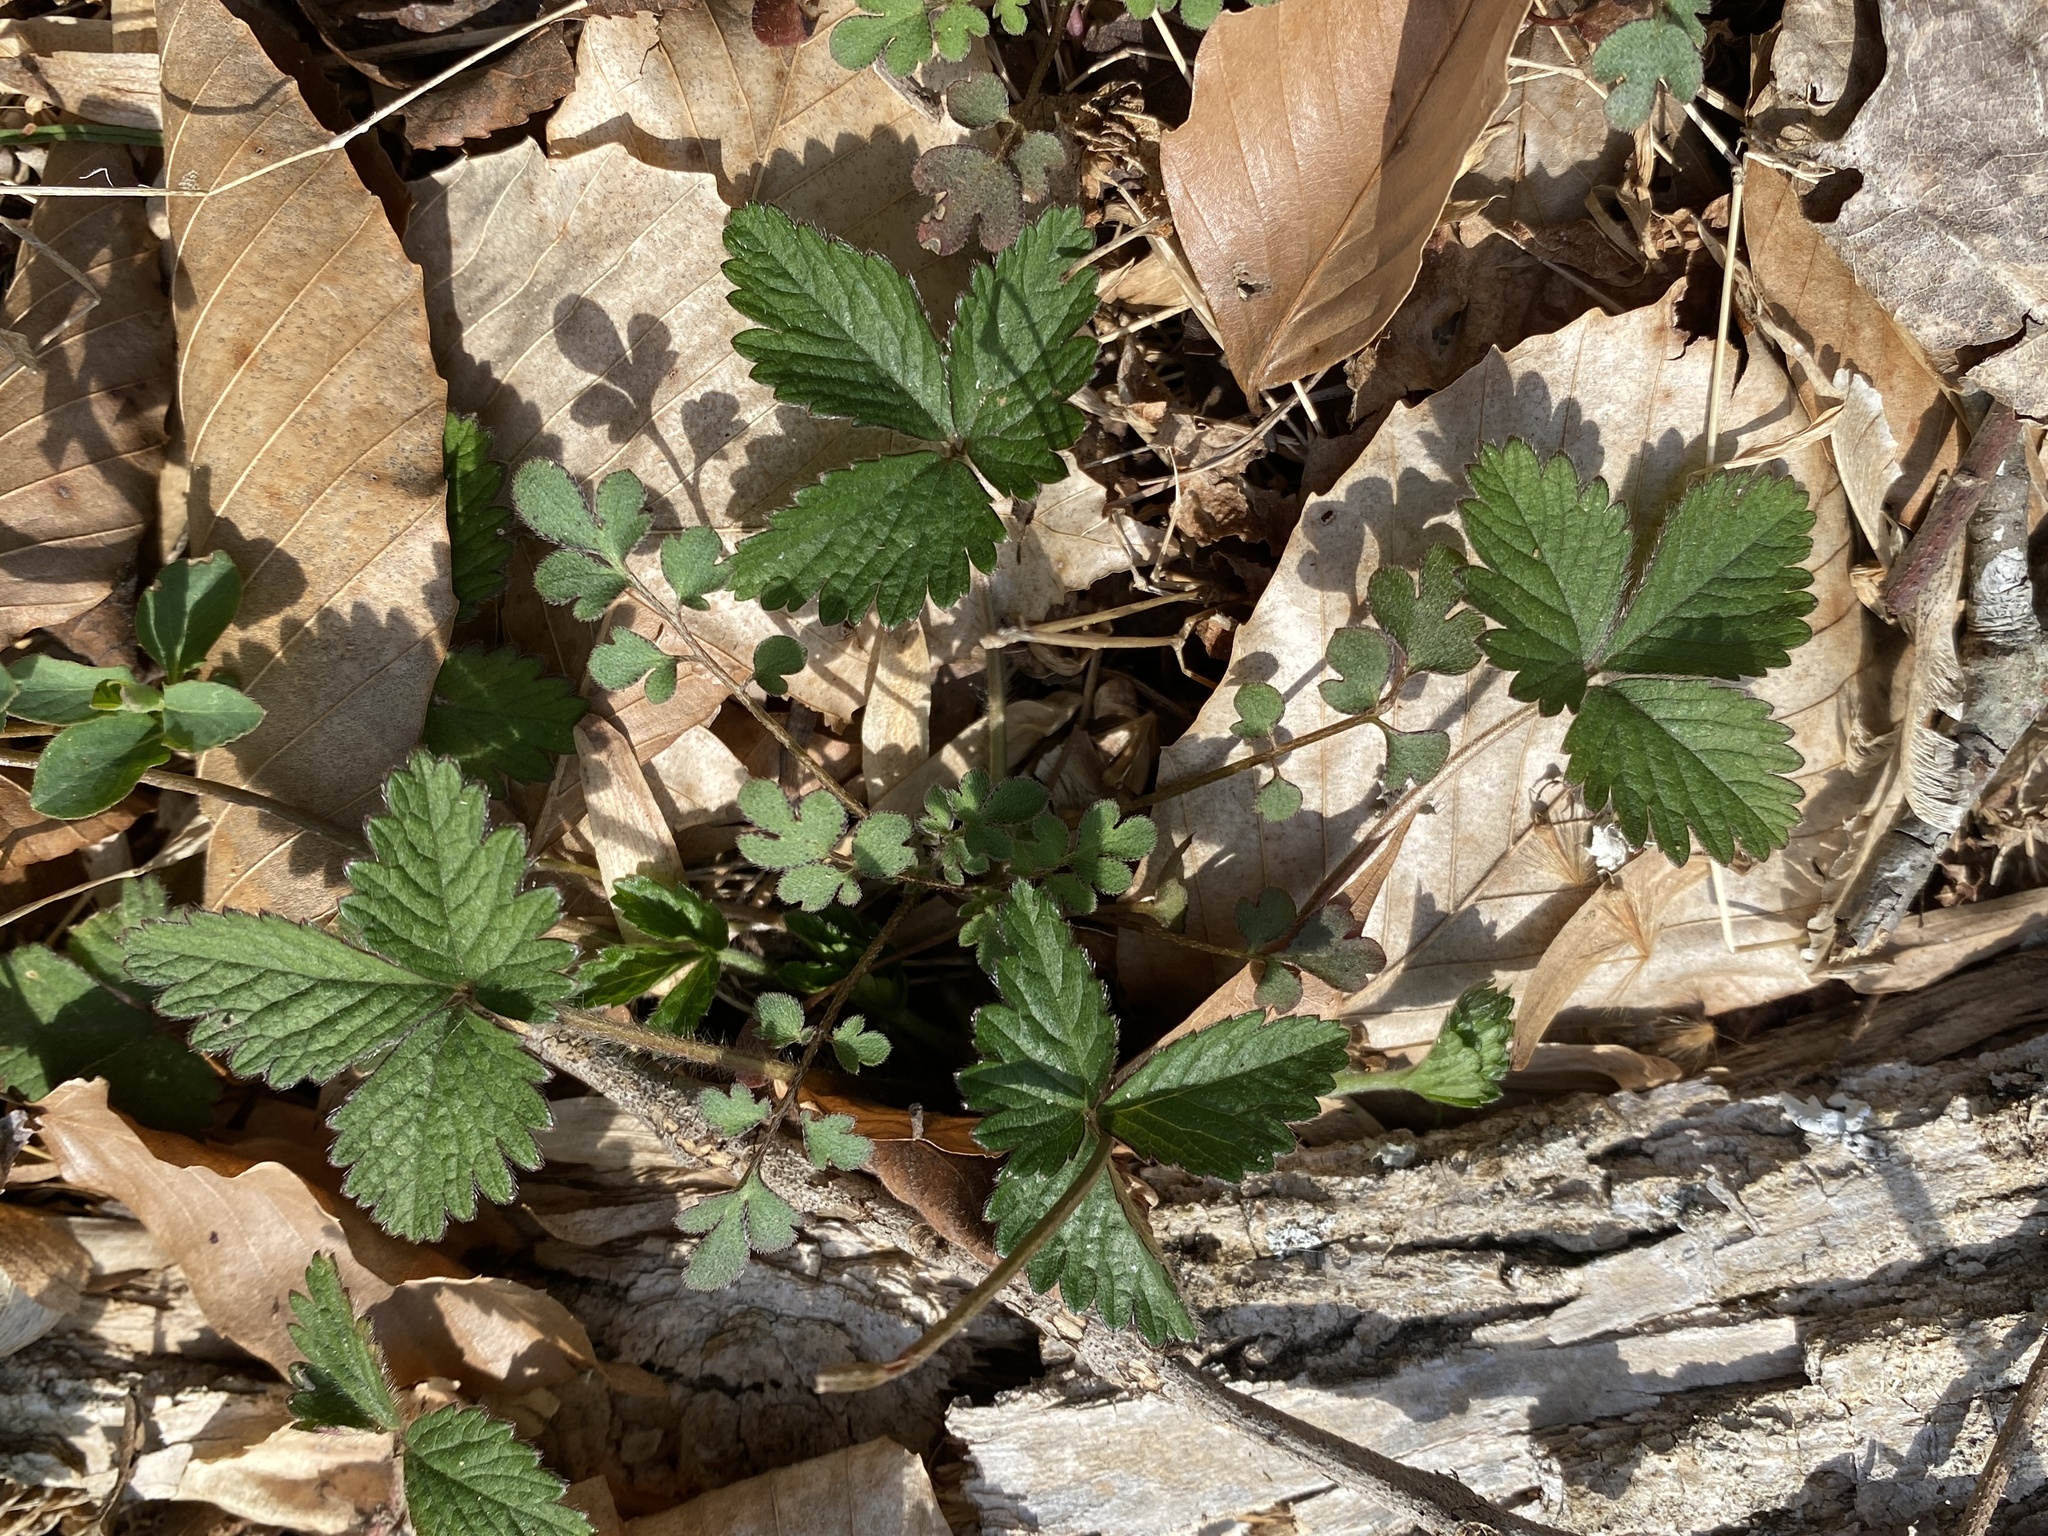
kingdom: Plantae
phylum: Tracheophyta
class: Magnoliopsida
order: Rosales
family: Rosaceae
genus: Potentilla
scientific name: Potentilla indica
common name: Yellow-flowered strawberry
